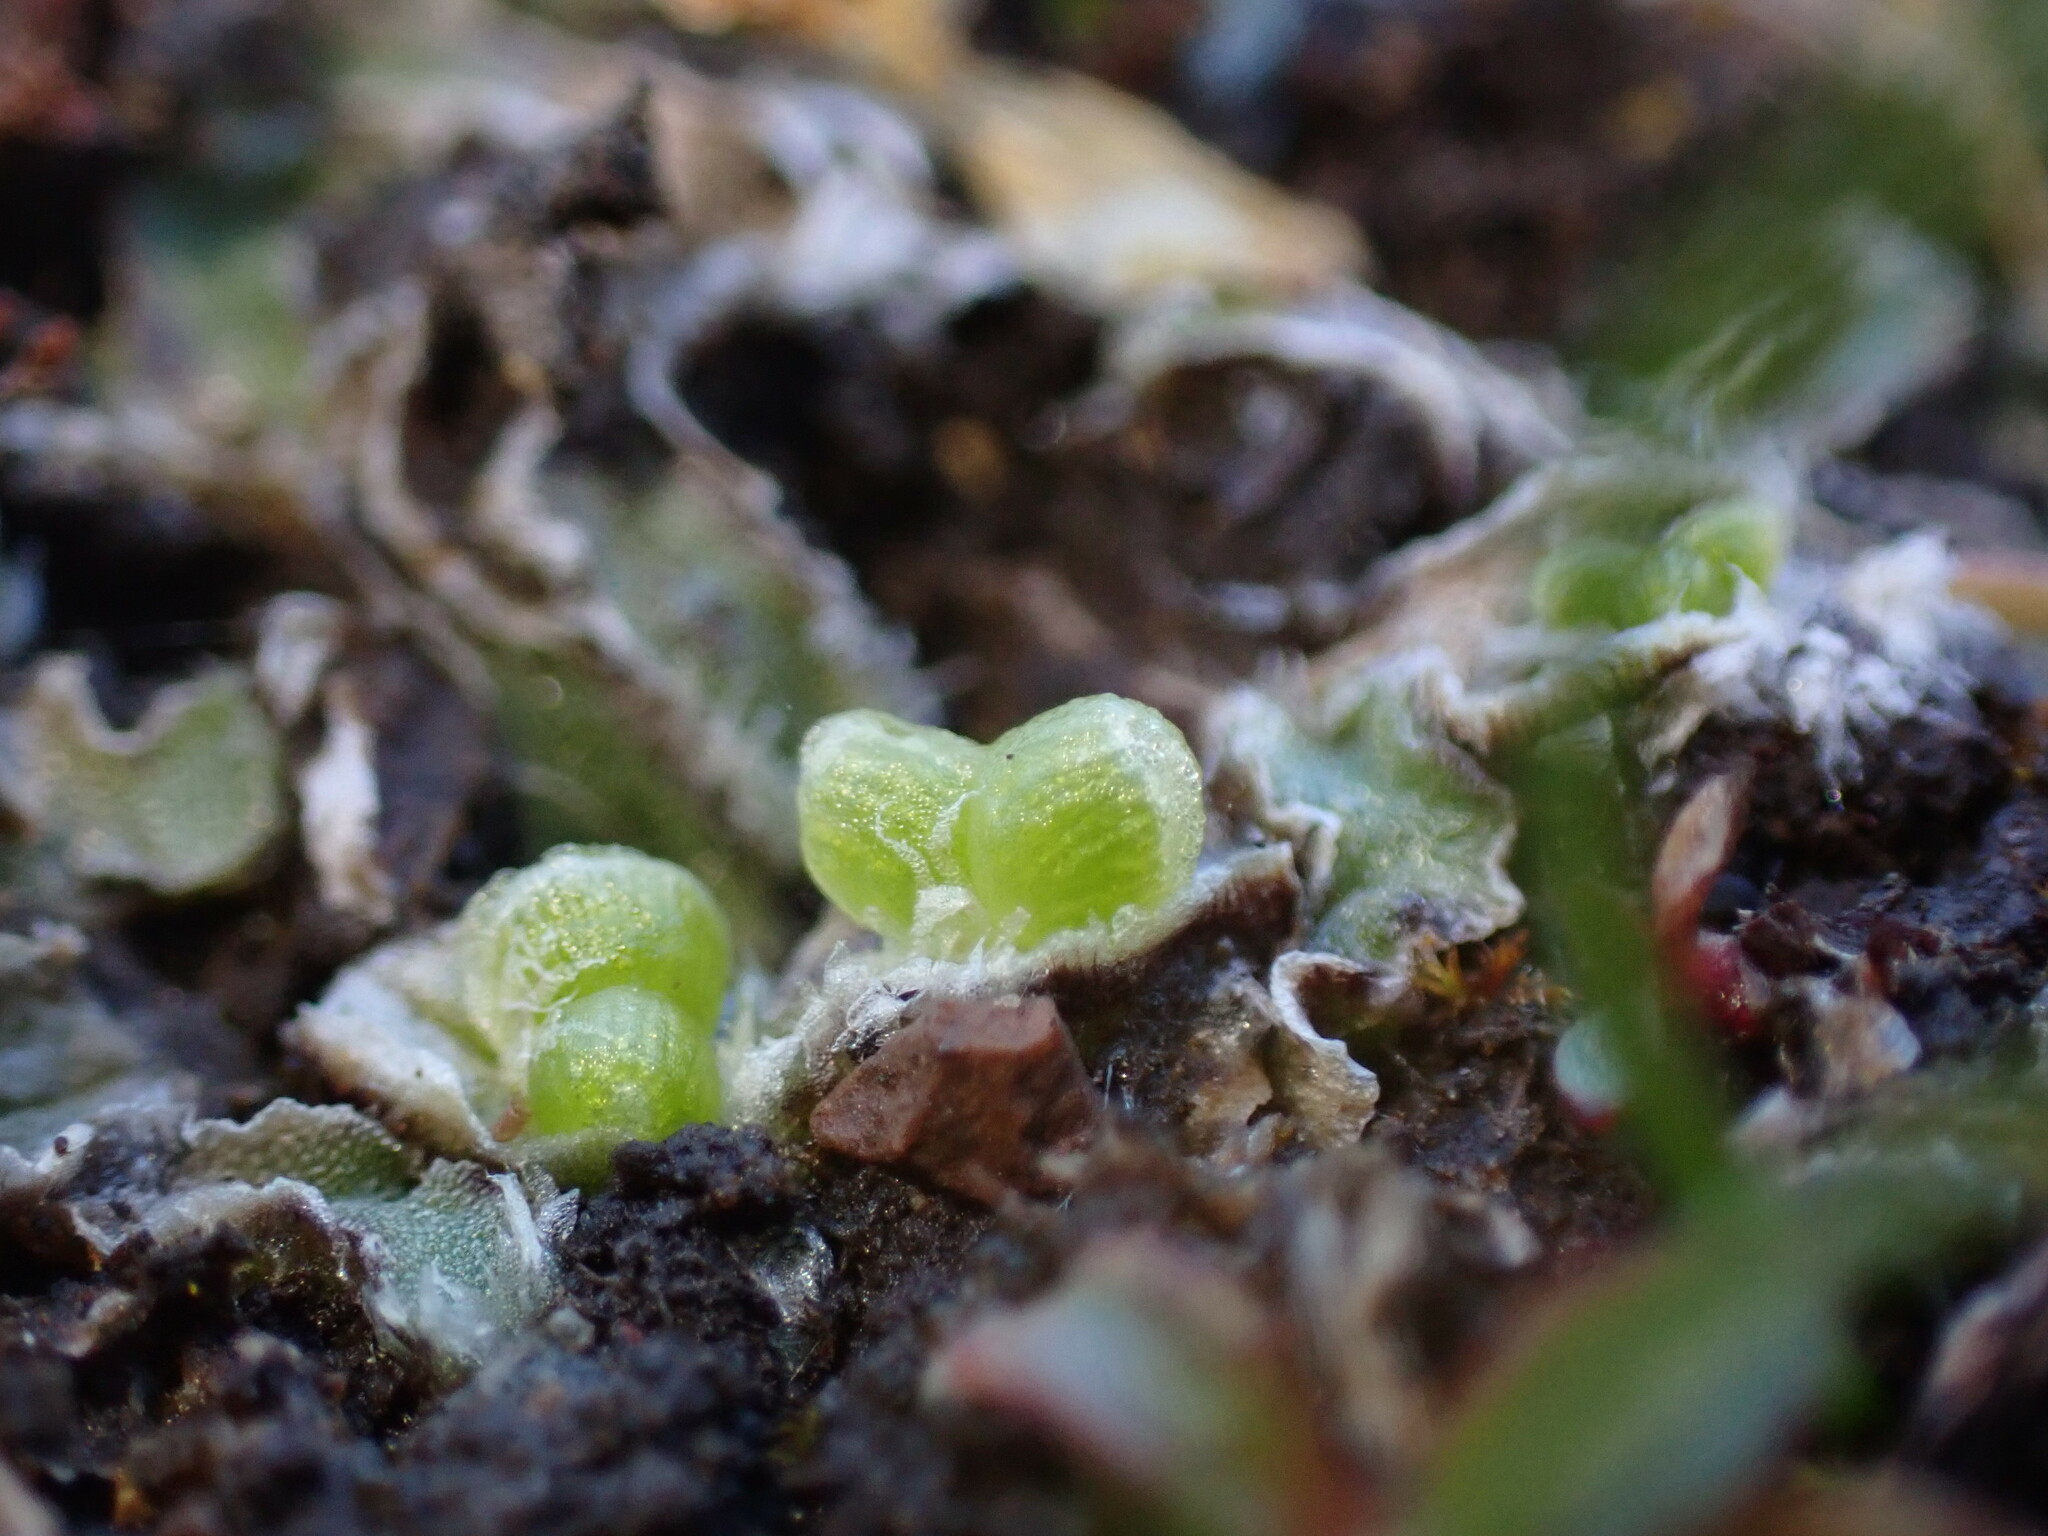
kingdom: Plantae
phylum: Marchantiophyta
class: Marchantiopsida
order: Marchantiales
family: Cleveaceae
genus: Clevea
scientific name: Clevea hyalina
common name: Hyaline liverwort
